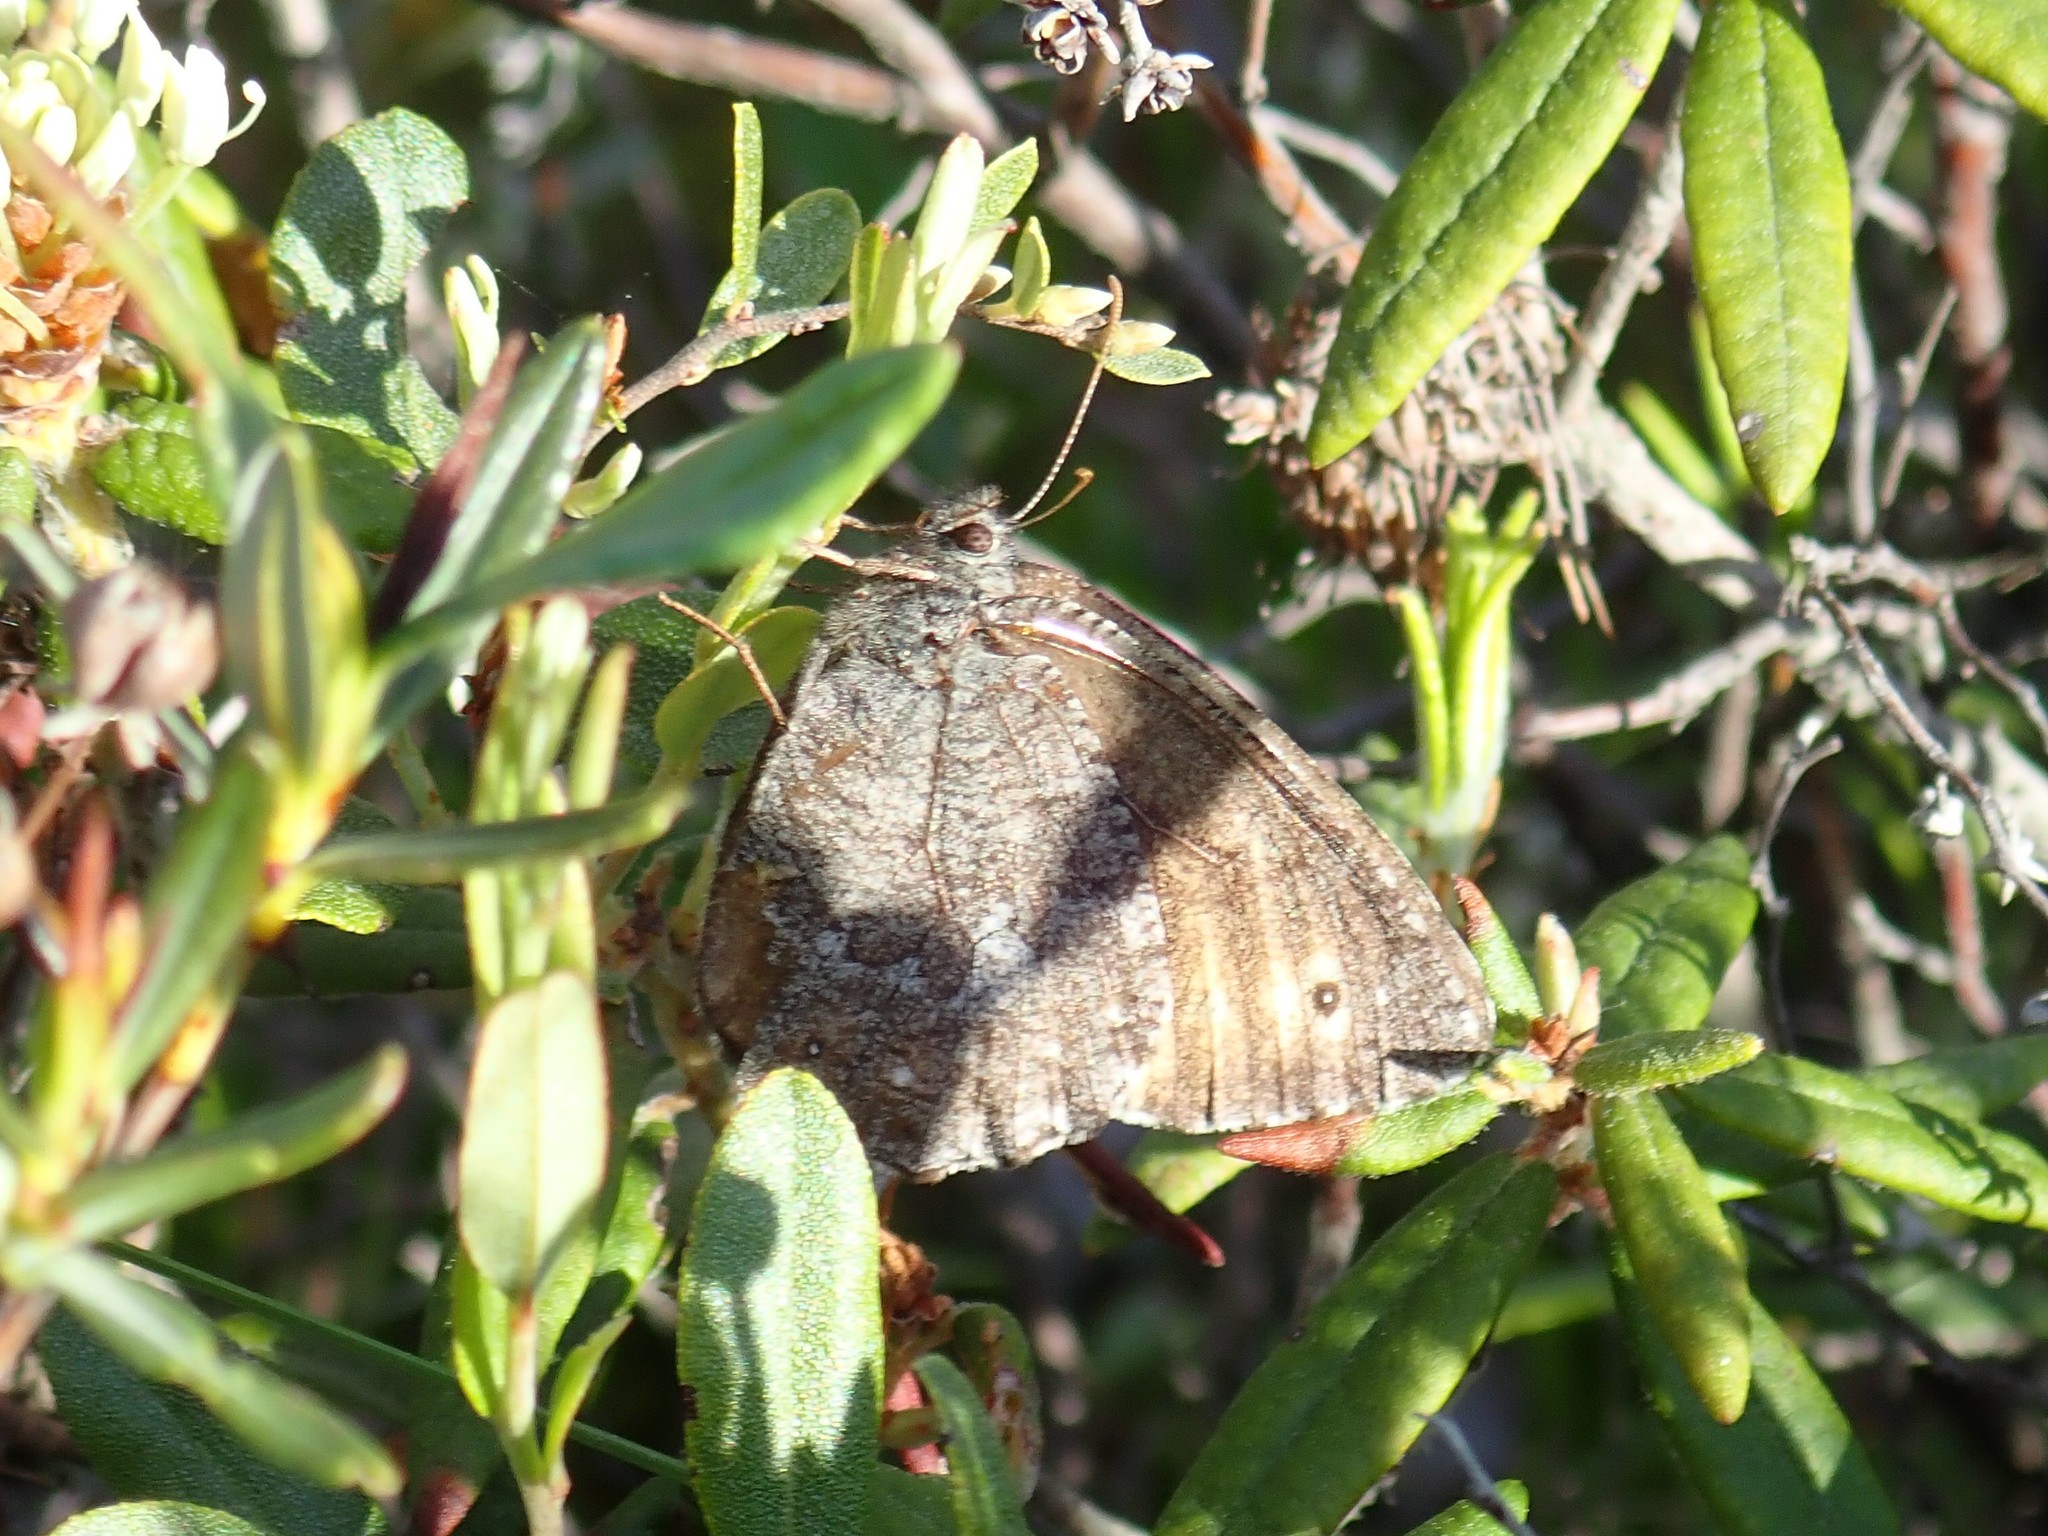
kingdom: Animalia
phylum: Arthropoda
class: Insecta
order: Lepidoptera
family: Nymphalidae
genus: Oeneis
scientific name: Oeneis jutta
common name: Baltic grayling
